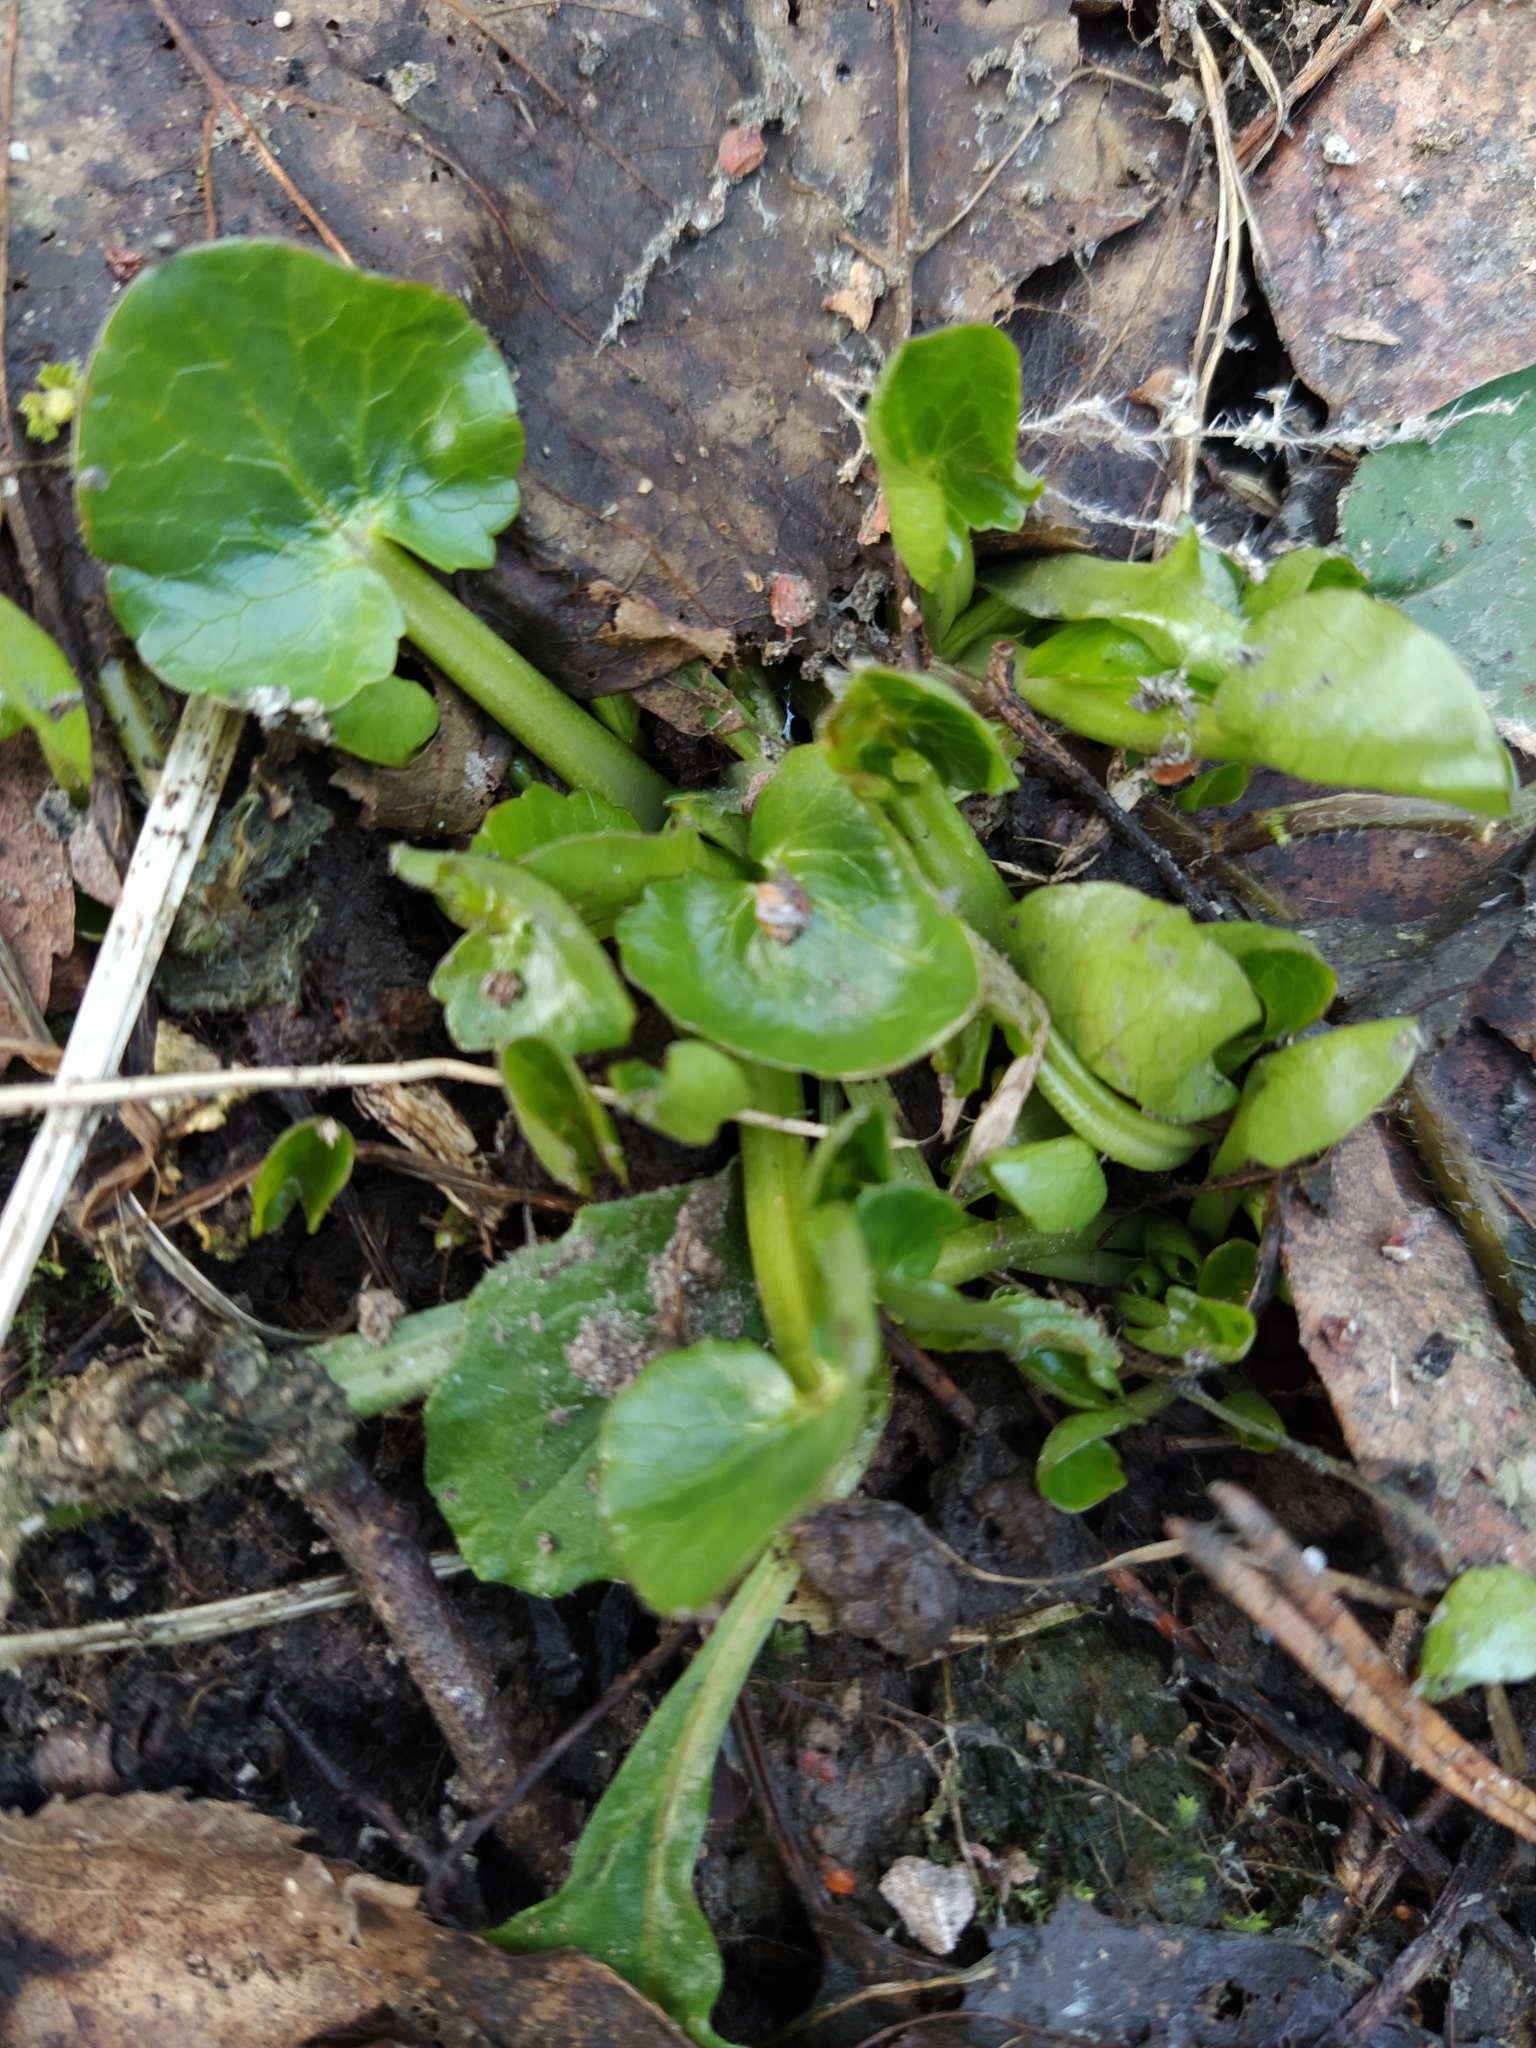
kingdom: Plantae
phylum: Tracheophyta
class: Magnoliopsida
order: Ranunculales
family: Ranunculaceae
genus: Ficaria
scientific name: Ficaria verna
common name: Lesser celandine
